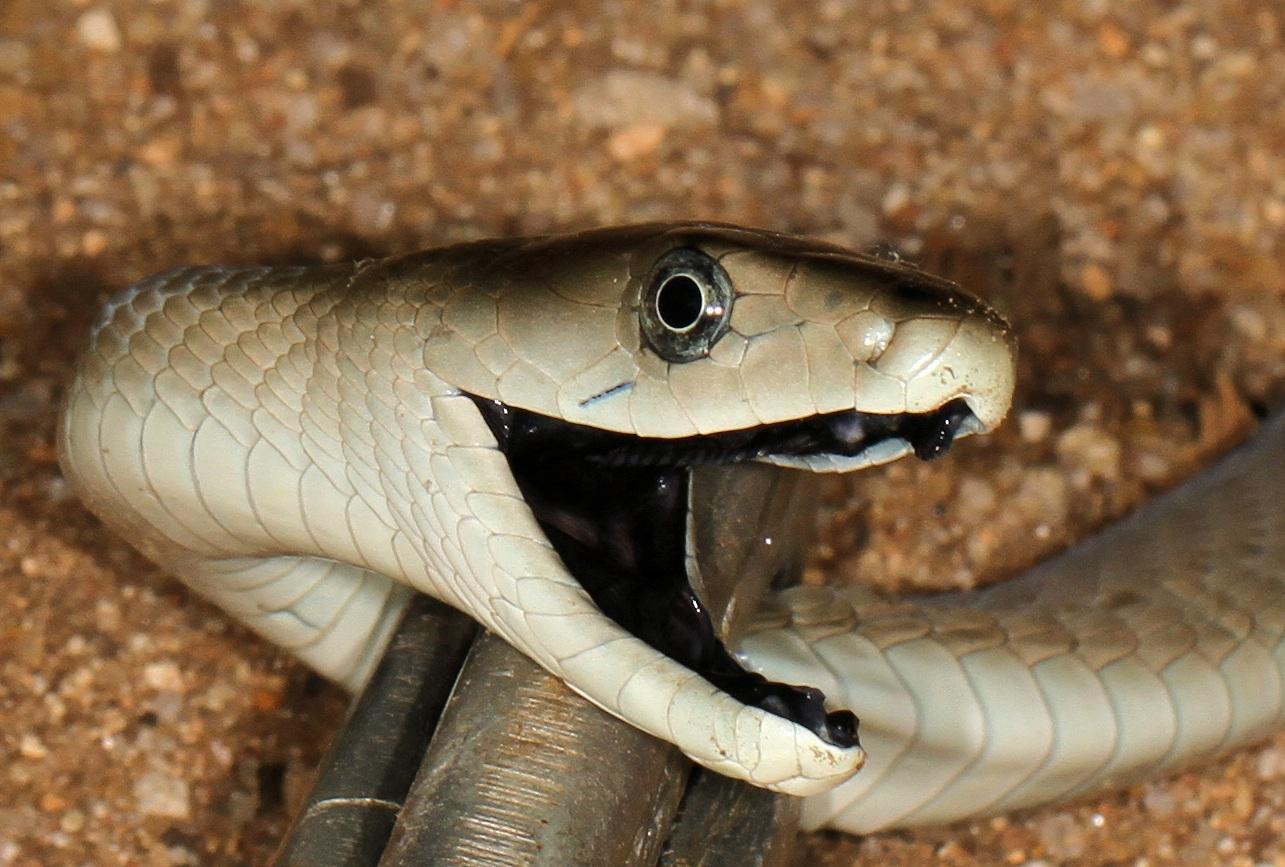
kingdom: Animalia
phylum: Chordata
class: Squamata
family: Elapidae
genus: Dendroaspis
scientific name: Dendroaspis polylepis
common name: Black mamba
